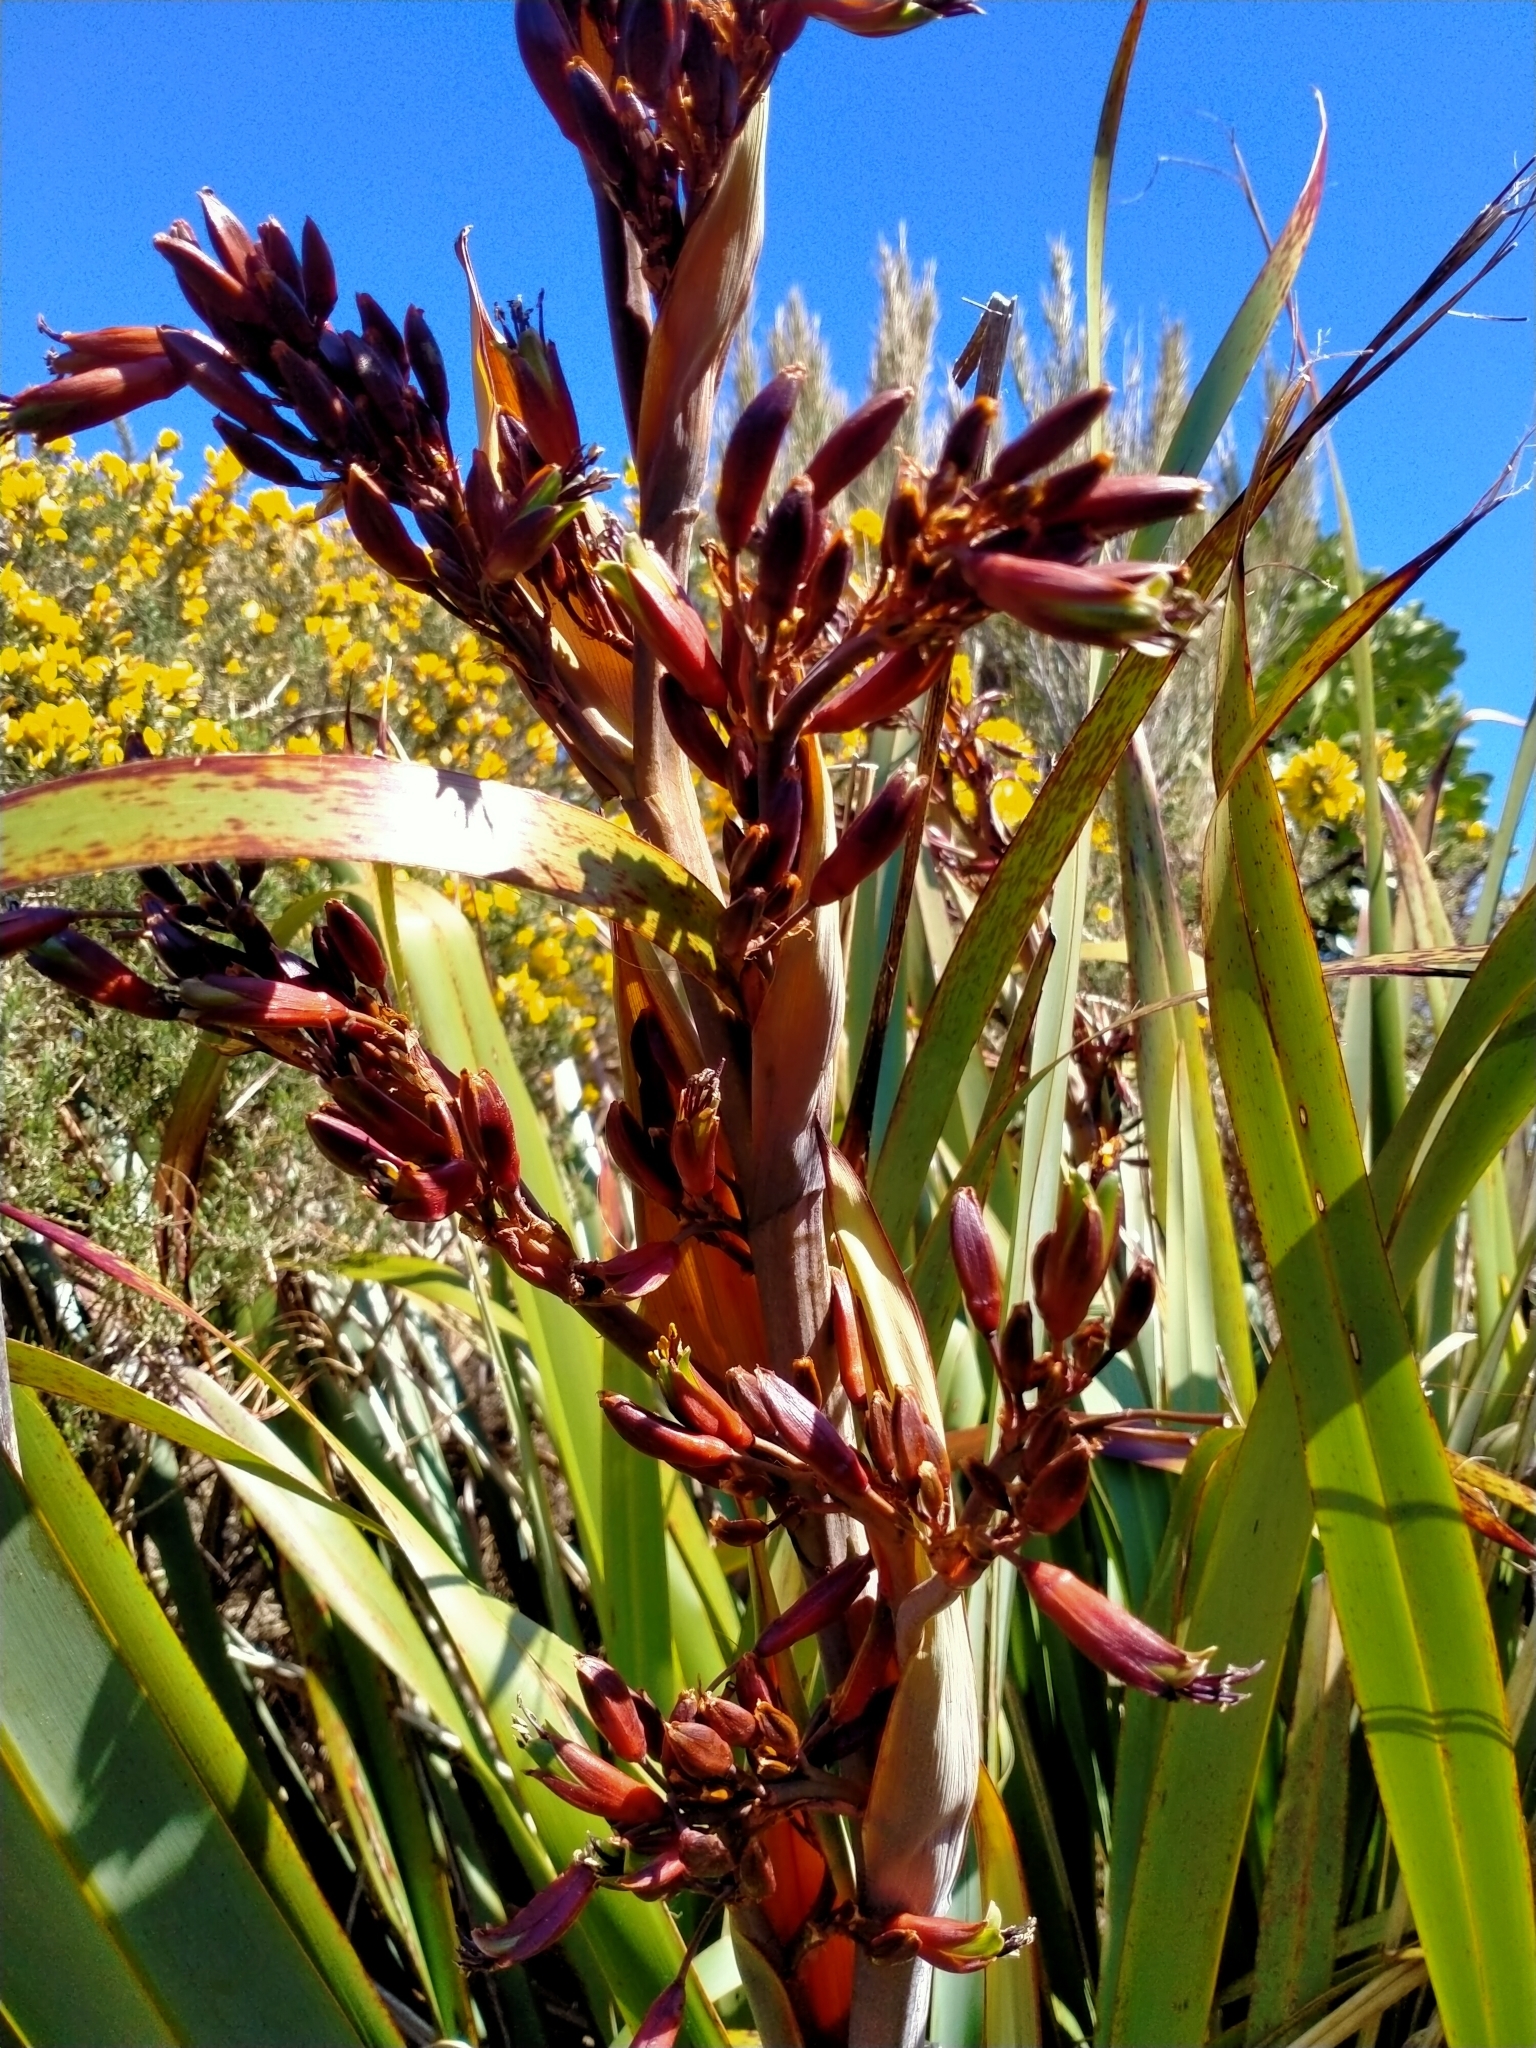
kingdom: Plantae
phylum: Tracheophyta
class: Liliopsida
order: Asparagales
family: Asphodelaceae
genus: Phormium
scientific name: Phormium colensoi
